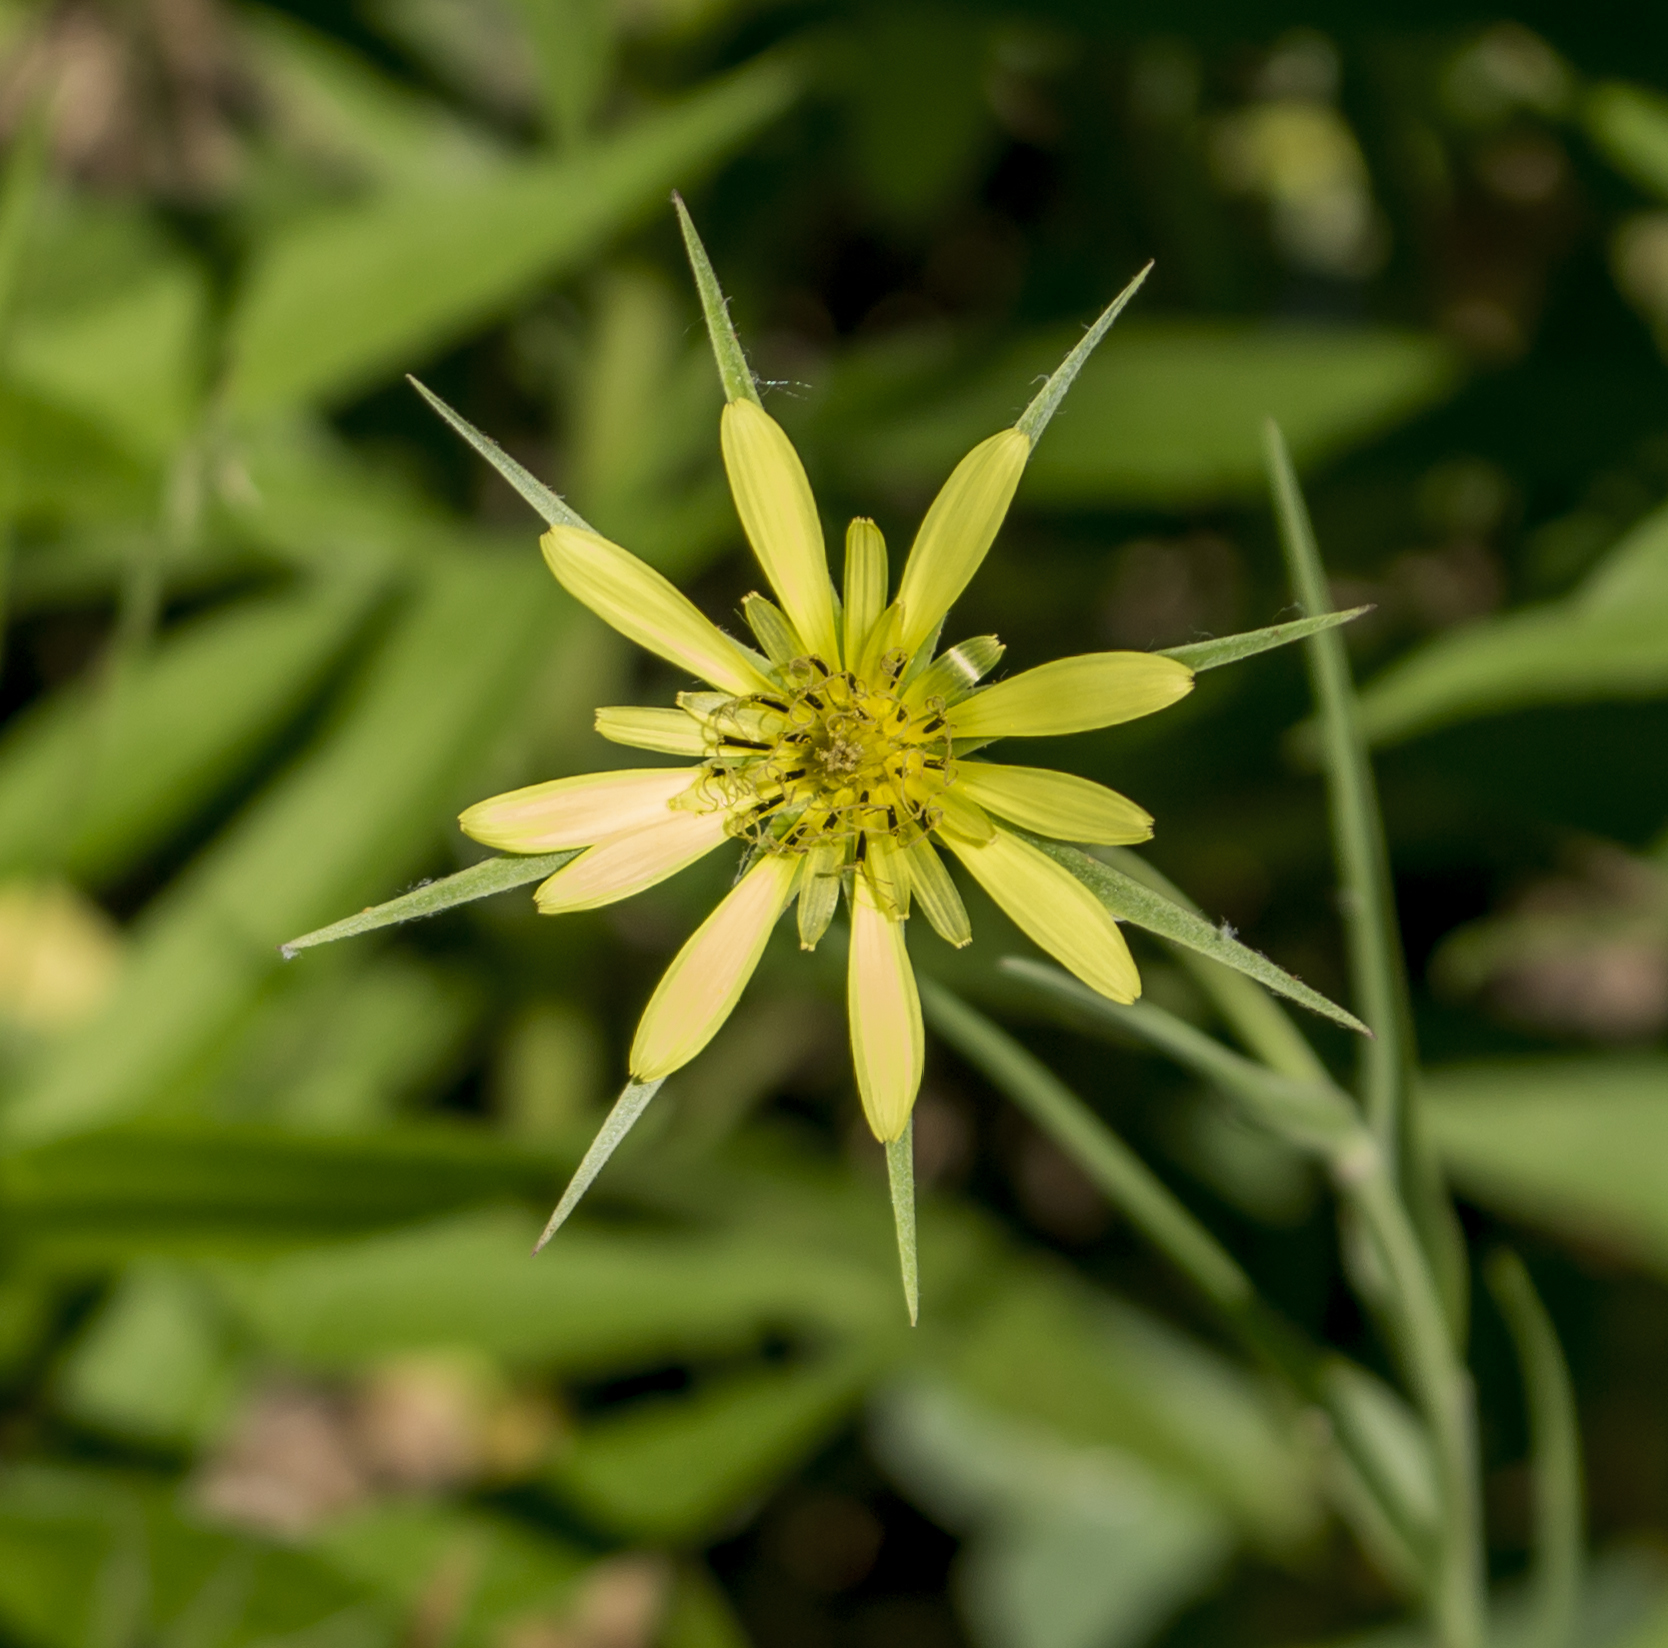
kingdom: Plantae
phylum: Tracheophyta
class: Magnoliopsida
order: Asterales
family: Asteraceae
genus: Tragopogon
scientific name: Tragopogon dubius
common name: Yellow salsify
